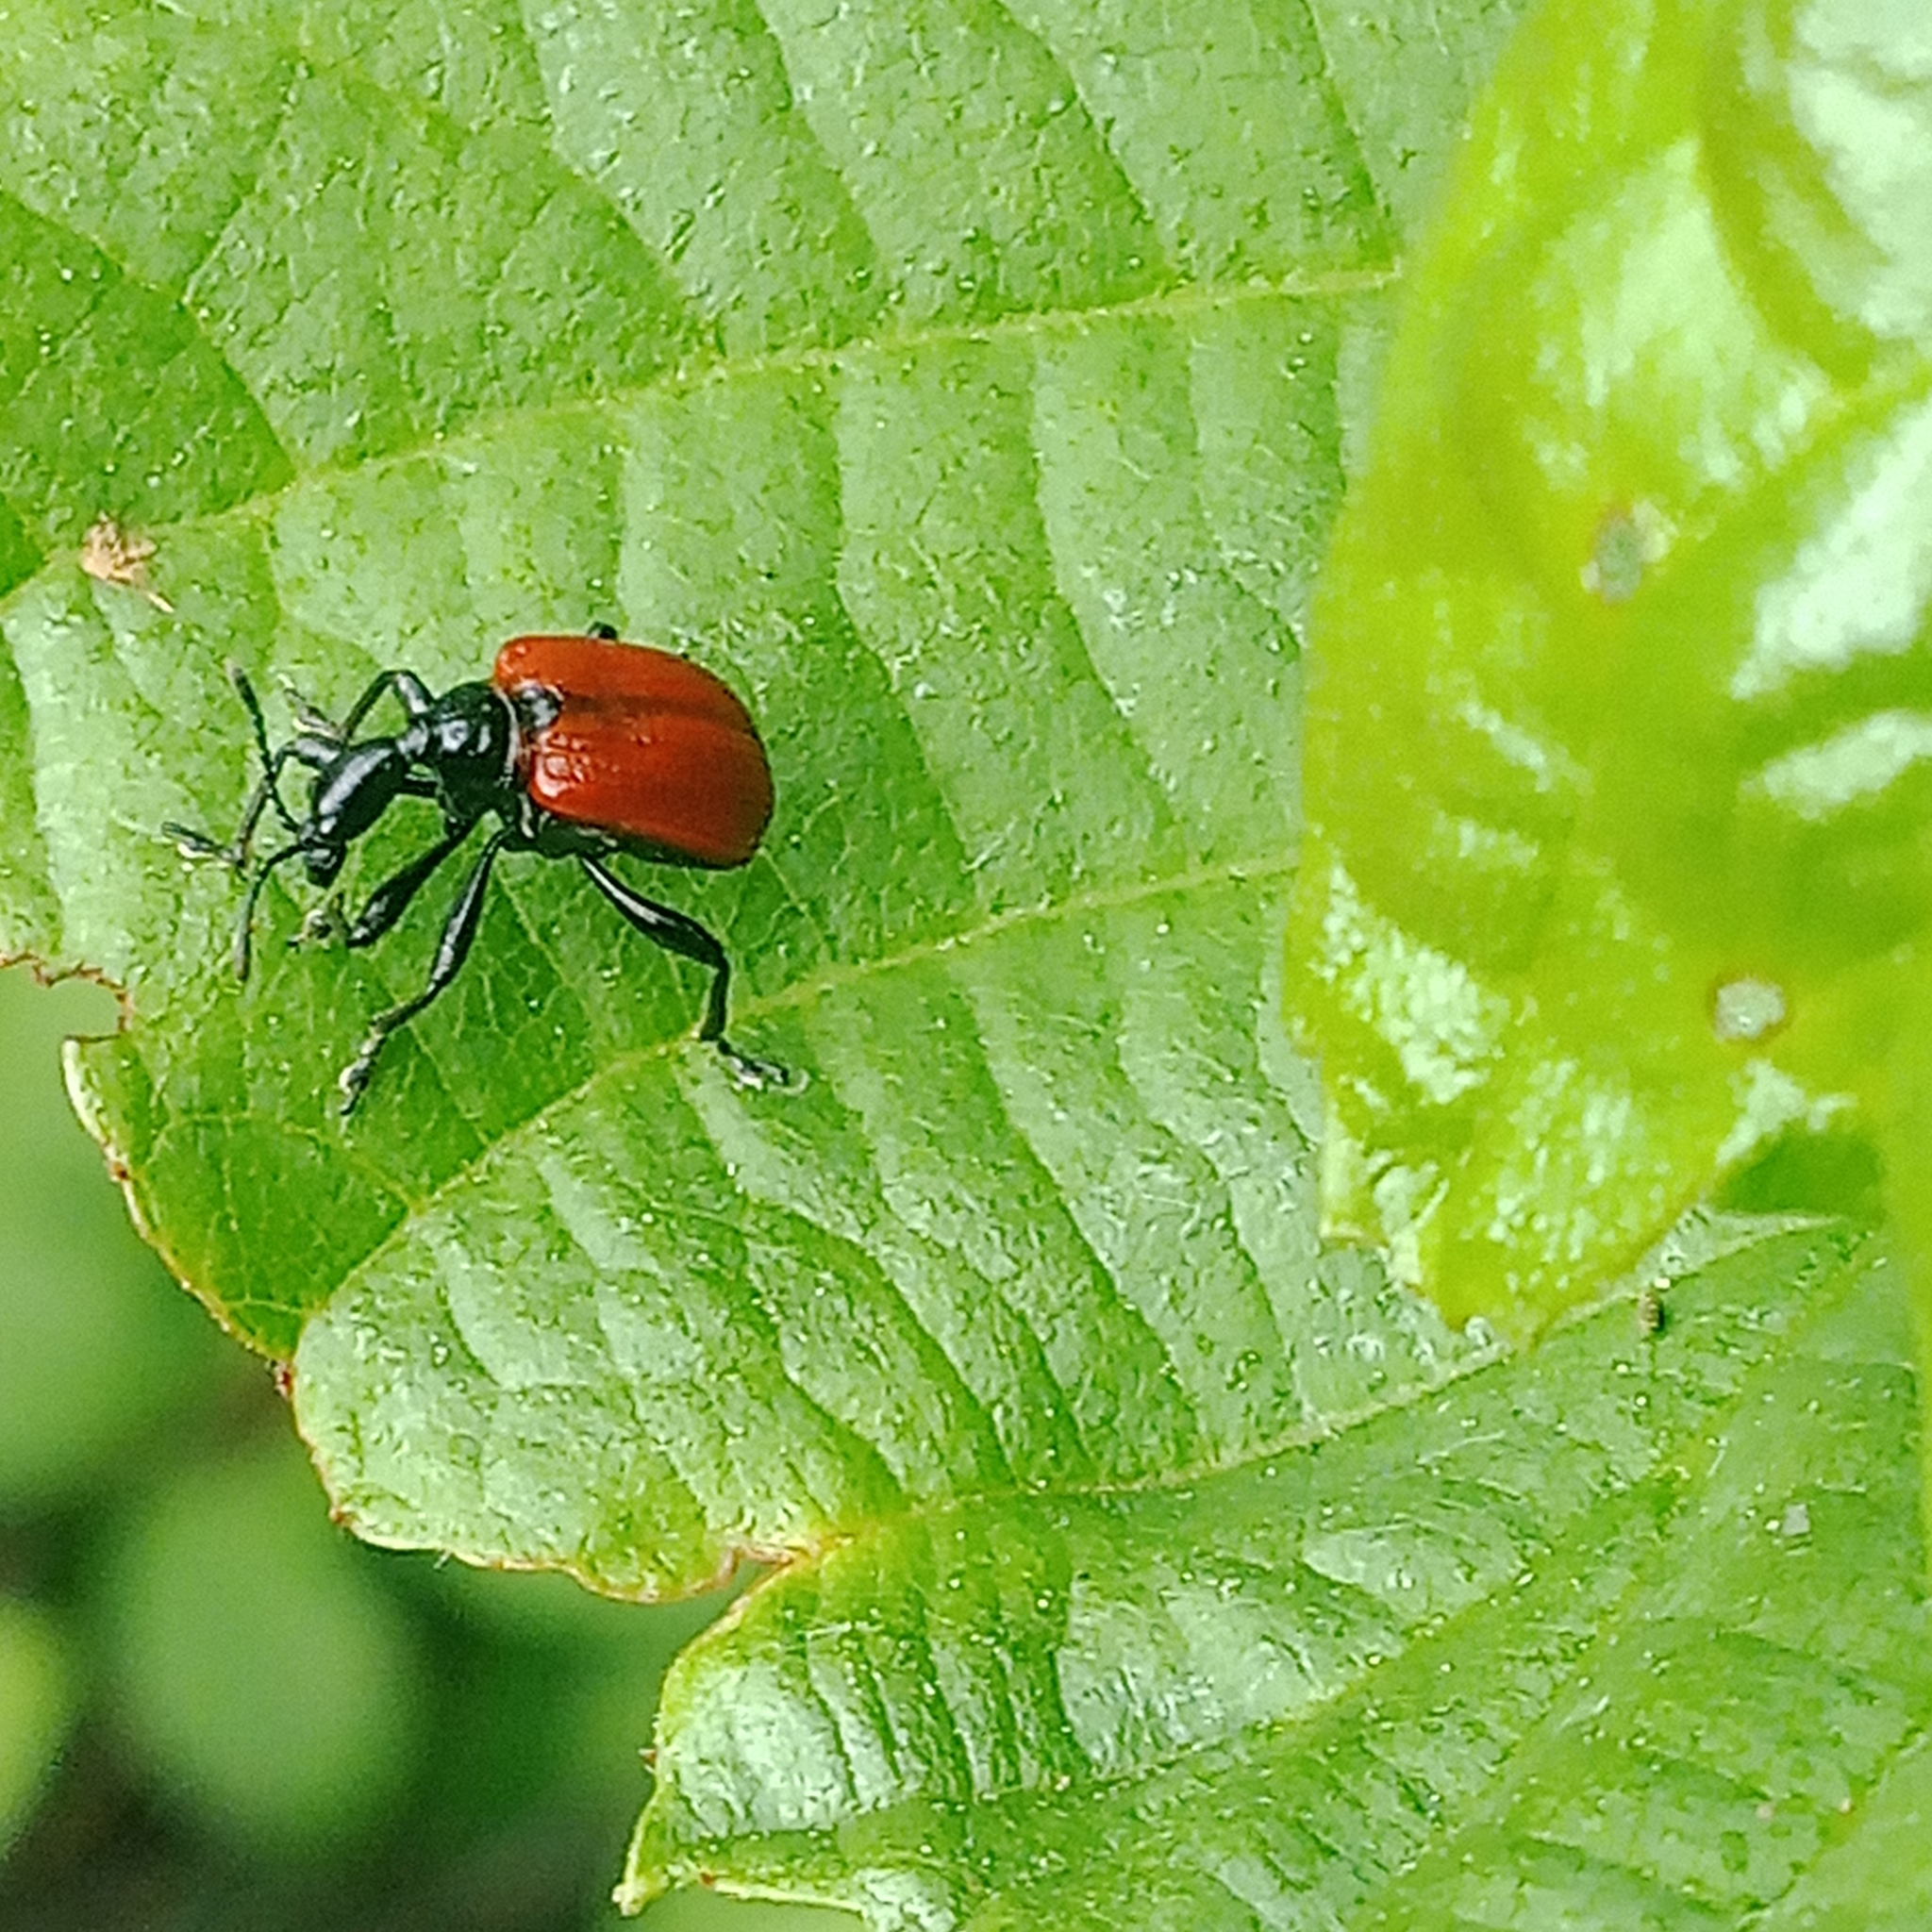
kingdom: Animalia
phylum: Arthropoda
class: Insecta
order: Coleoptera
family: Attelabidae
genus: Apoderus
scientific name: Apoderus coryli
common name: Hazel leaf roller
